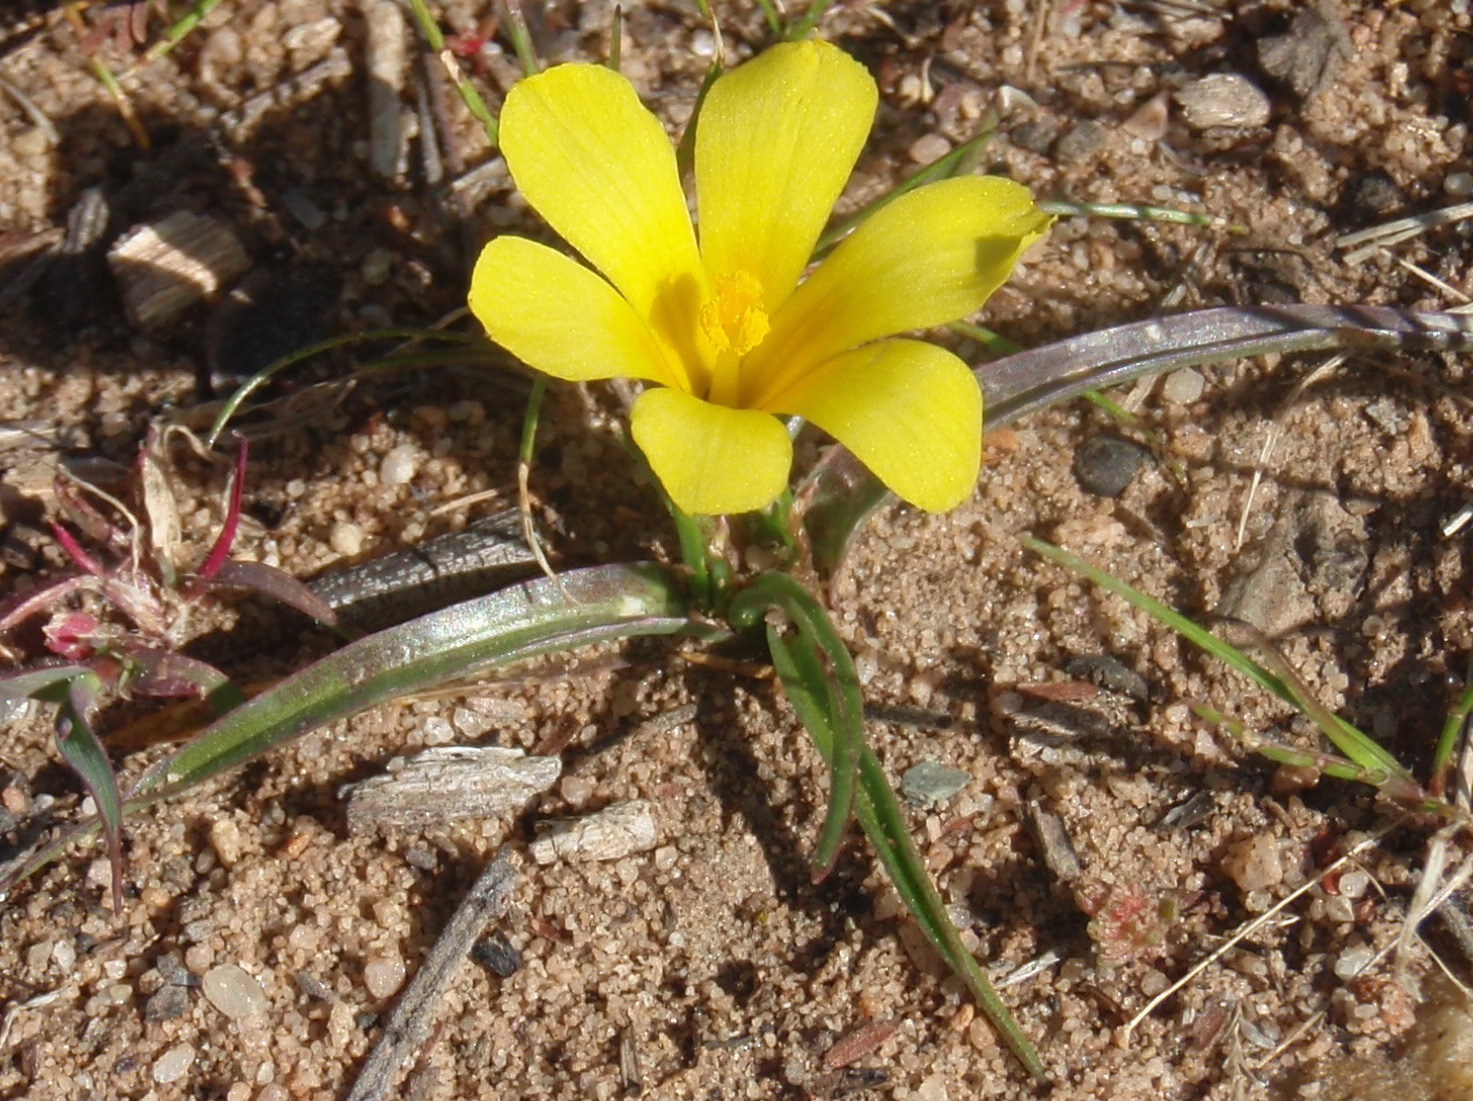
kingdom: Plantae
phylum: Tracheophyta
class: Liliopsida
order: Asparagales
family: Iridaceae
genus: Moraea
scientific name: Moraea fugacissima
